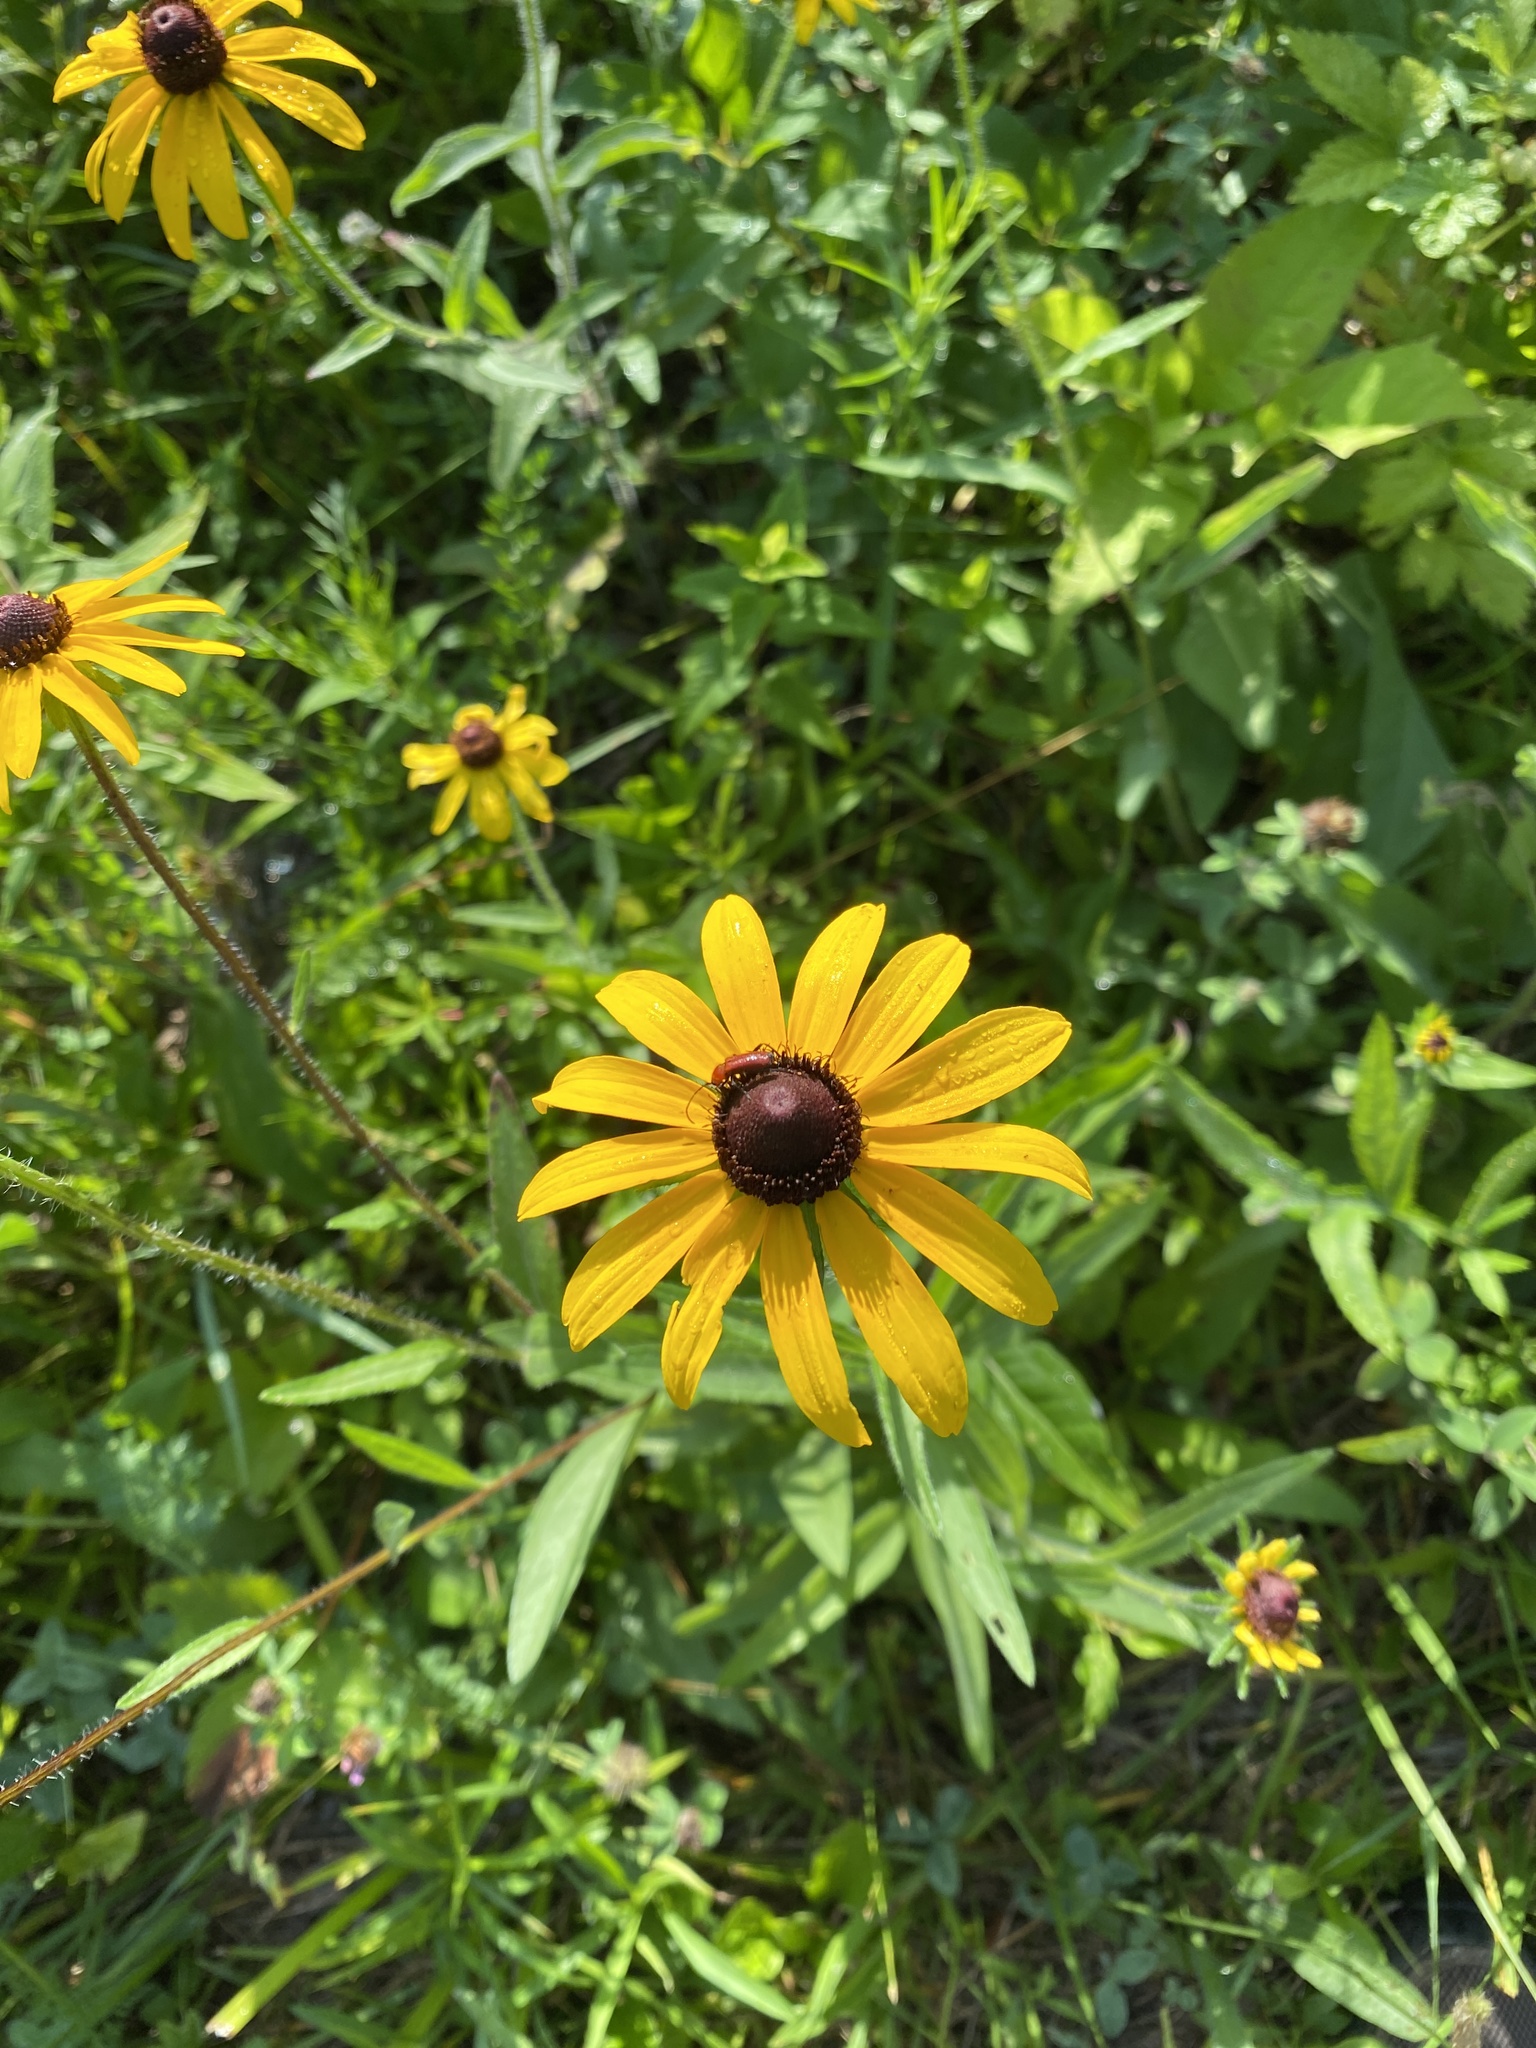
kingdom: Plantae
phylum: Tracheophyta
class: Magnoliopsida
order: Asterales
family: Asteraceae
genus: Rudbeckia
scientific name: Rudbeckia hirta
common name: Black-eyed-susan
